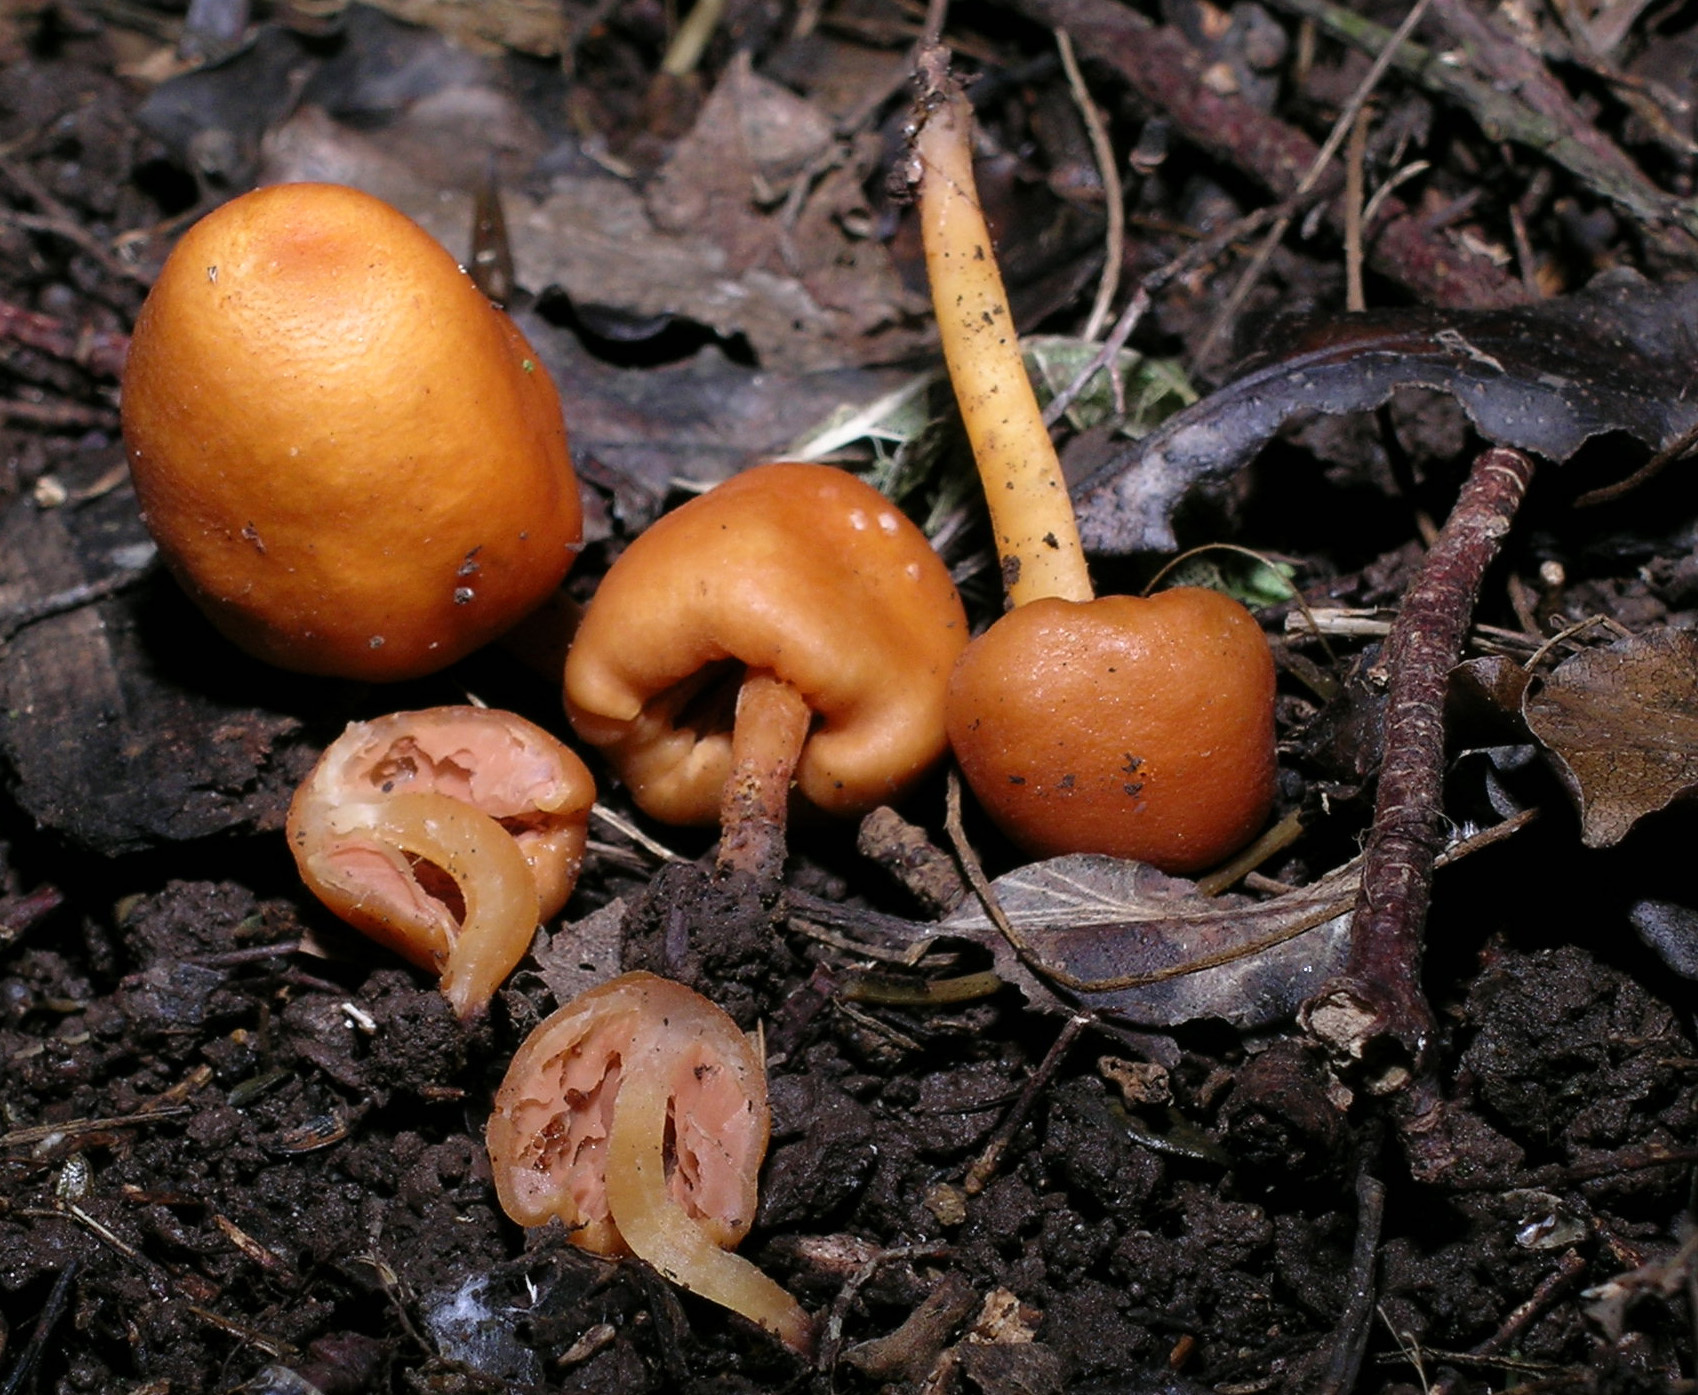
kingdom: Fungi
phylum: Basidiomycota
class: Agaricomycetes
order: Agaricales
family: Macrocystidiaceae
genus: Macrocystidia
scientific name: Macrocystidia reducta
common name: The fishy pouch
